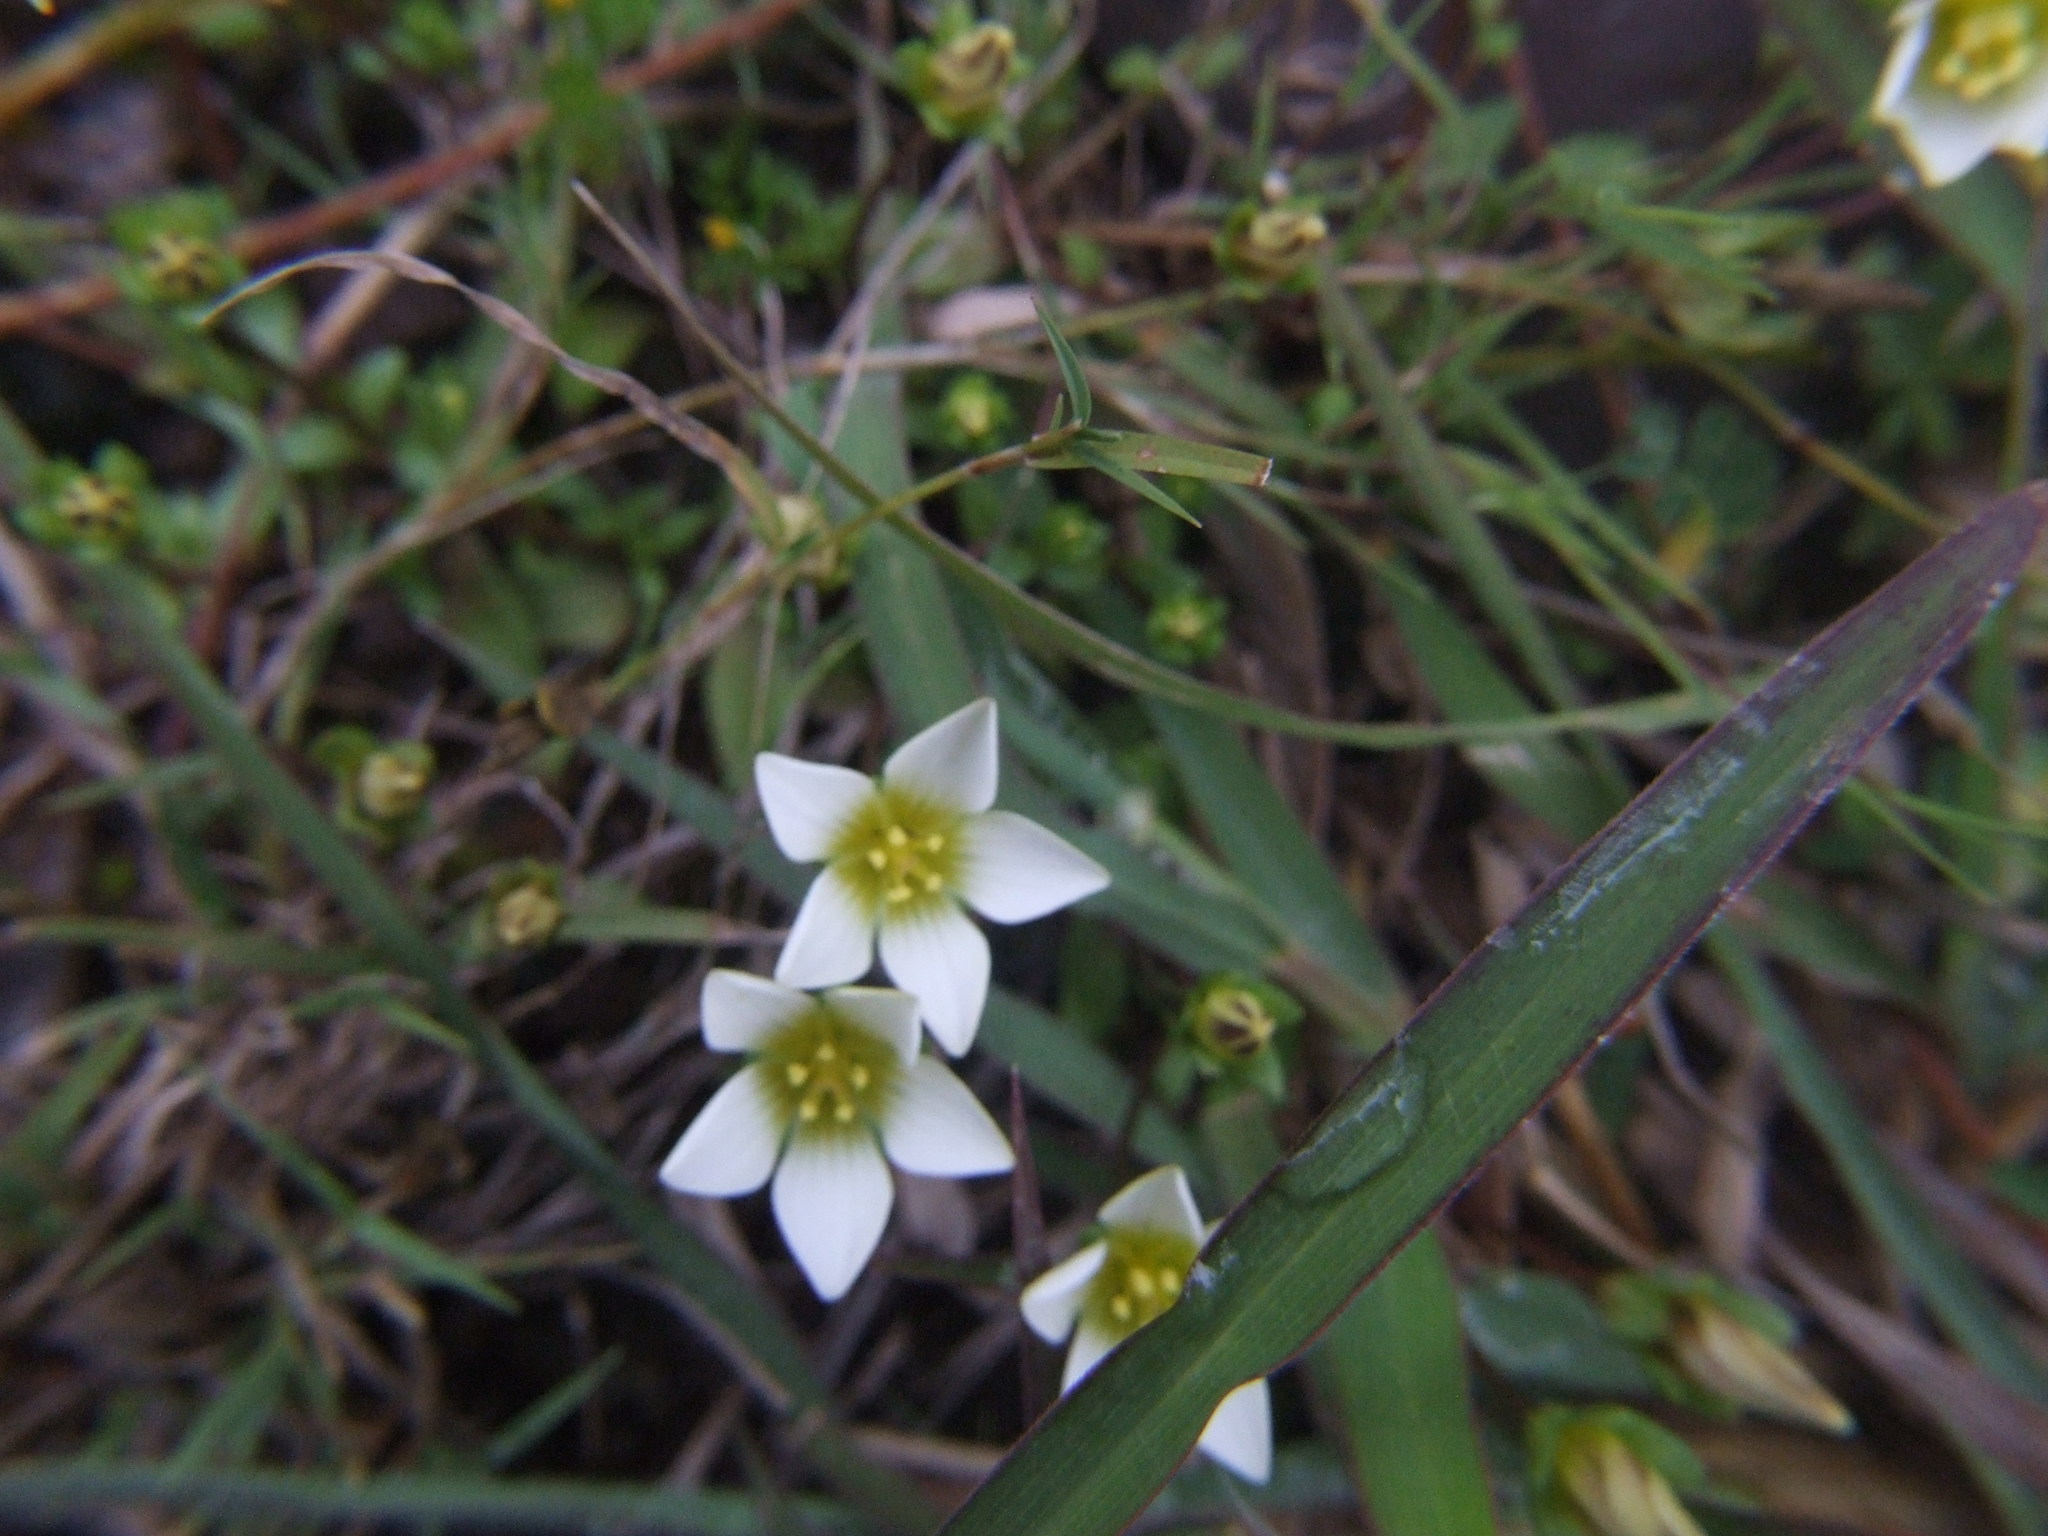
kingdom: Plantae
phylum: Tracheophyta
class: Magnoliopsida
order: Gentianales
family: Gentianaceae
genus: Gentianella
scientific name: Gentianella limoselloides
